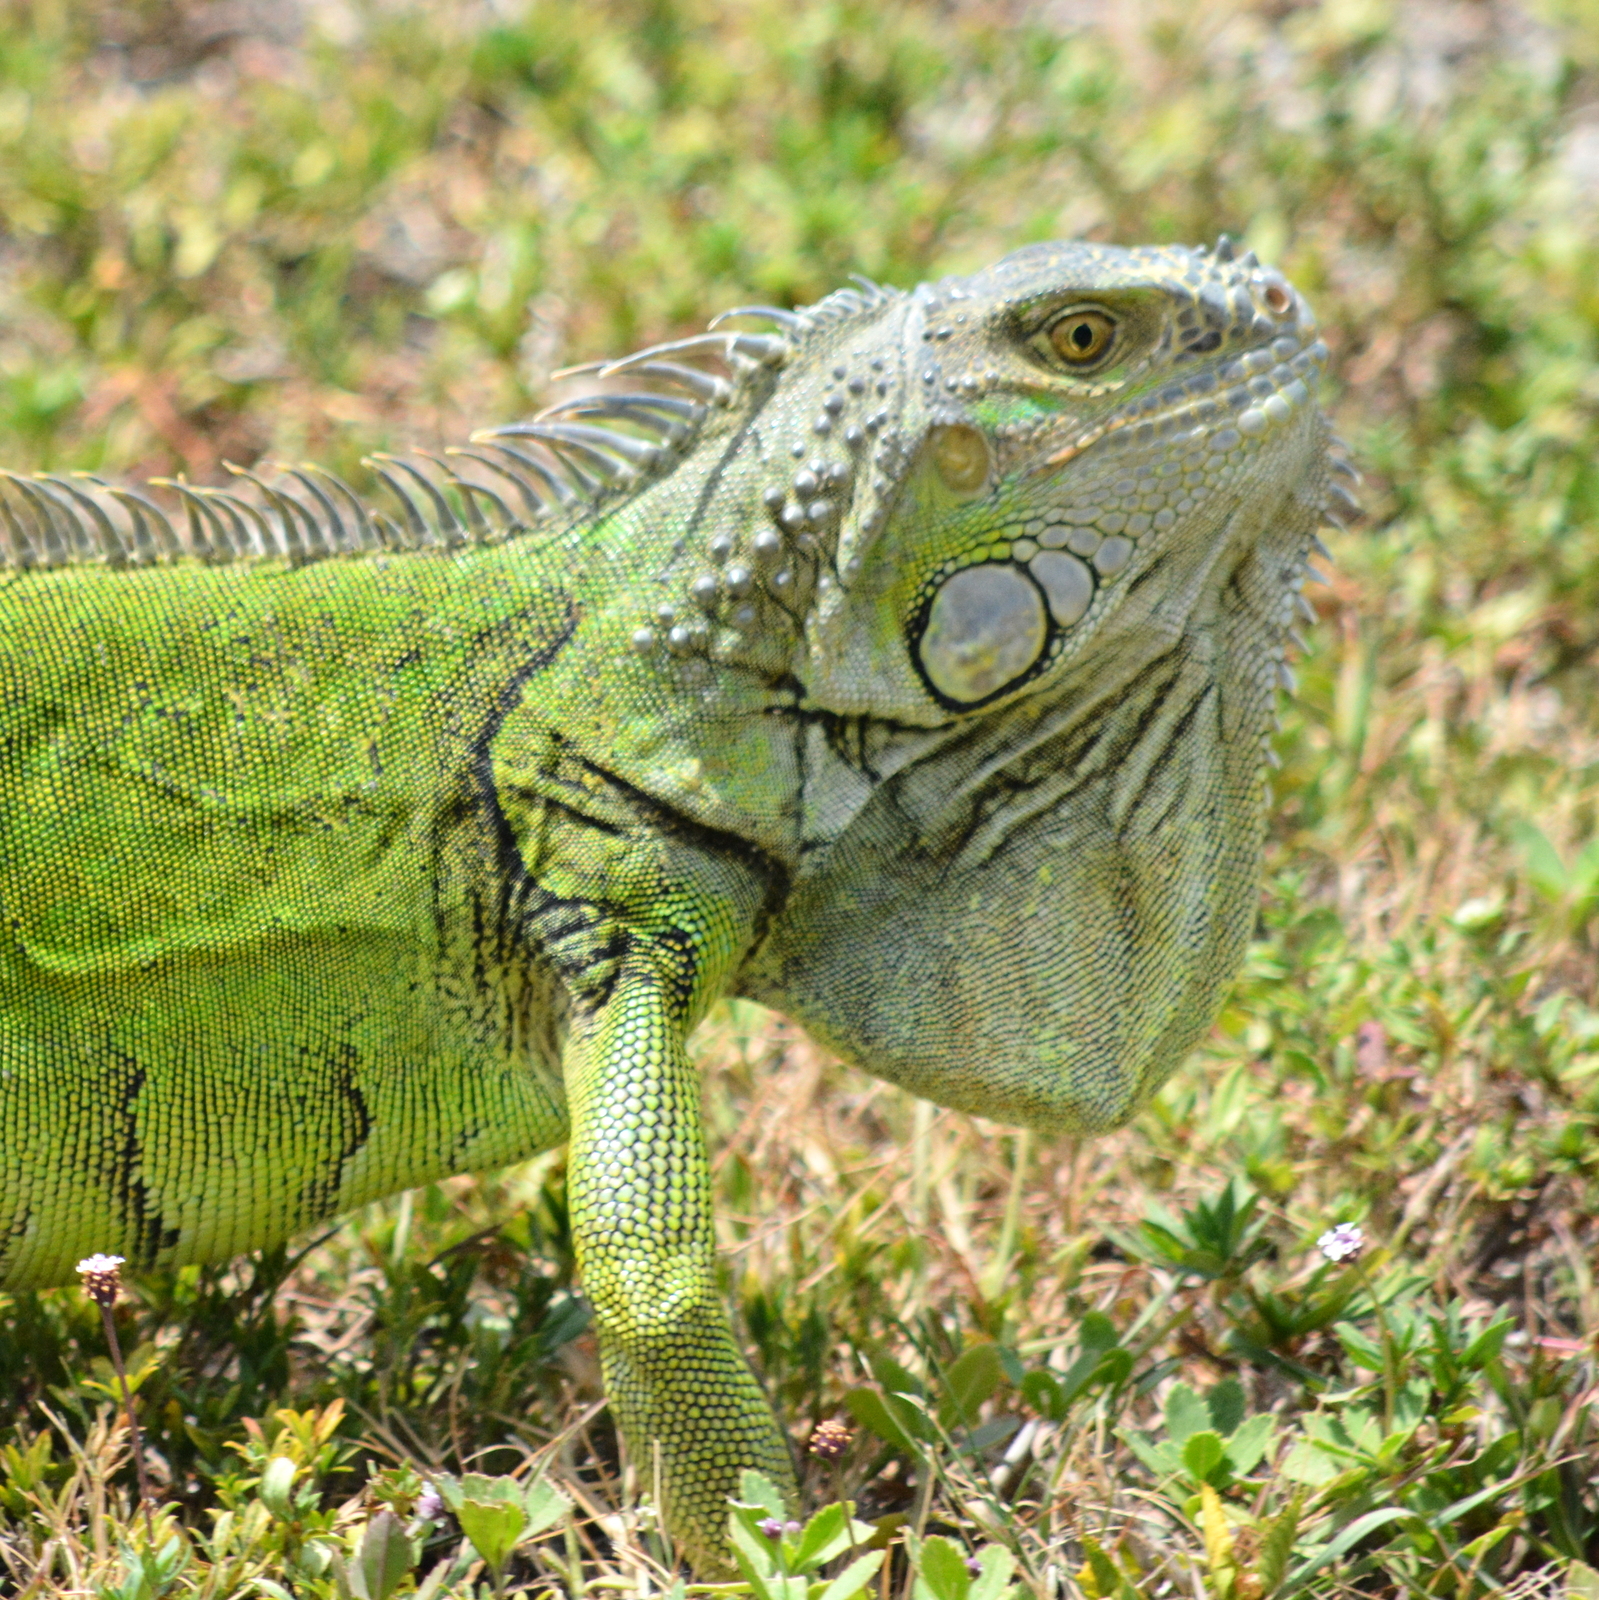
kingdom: Animalia
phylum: Chordata
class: Squamata
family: Iguanidae
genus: Iguana
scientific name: Iguana iguana
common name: Green iguana
